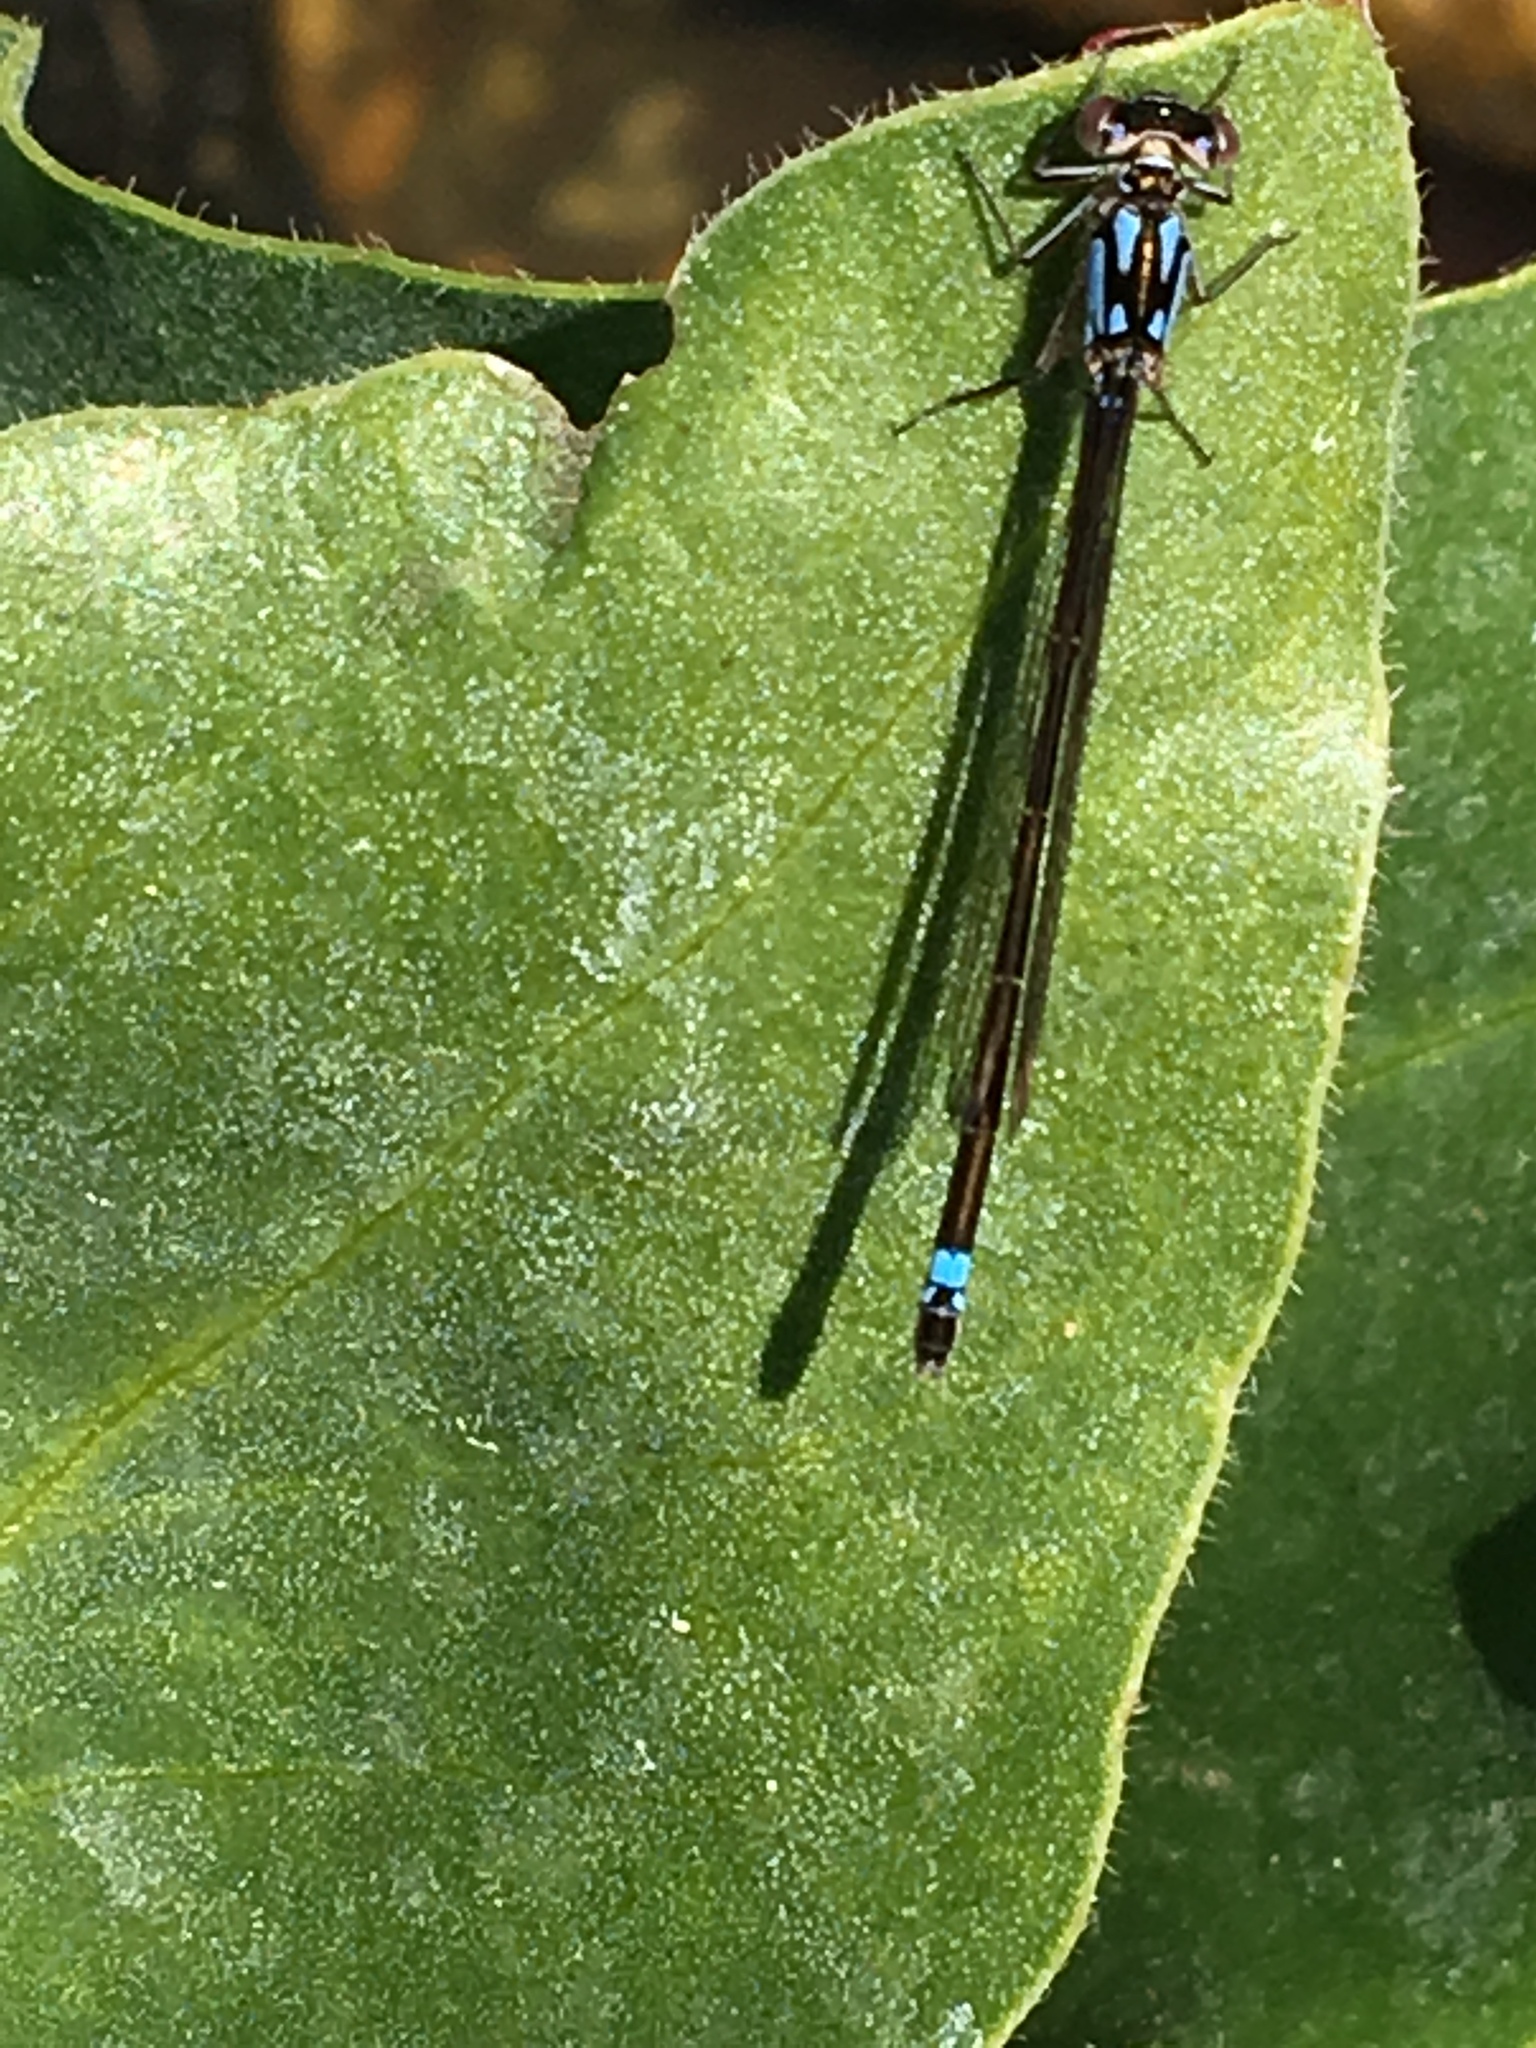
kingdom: Animalia
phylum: Arthropoda
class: Insecta
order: Odonata
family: Coenagrionidae
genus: Ischnura
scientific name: Ischnura cervula
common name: Pacific forktail
